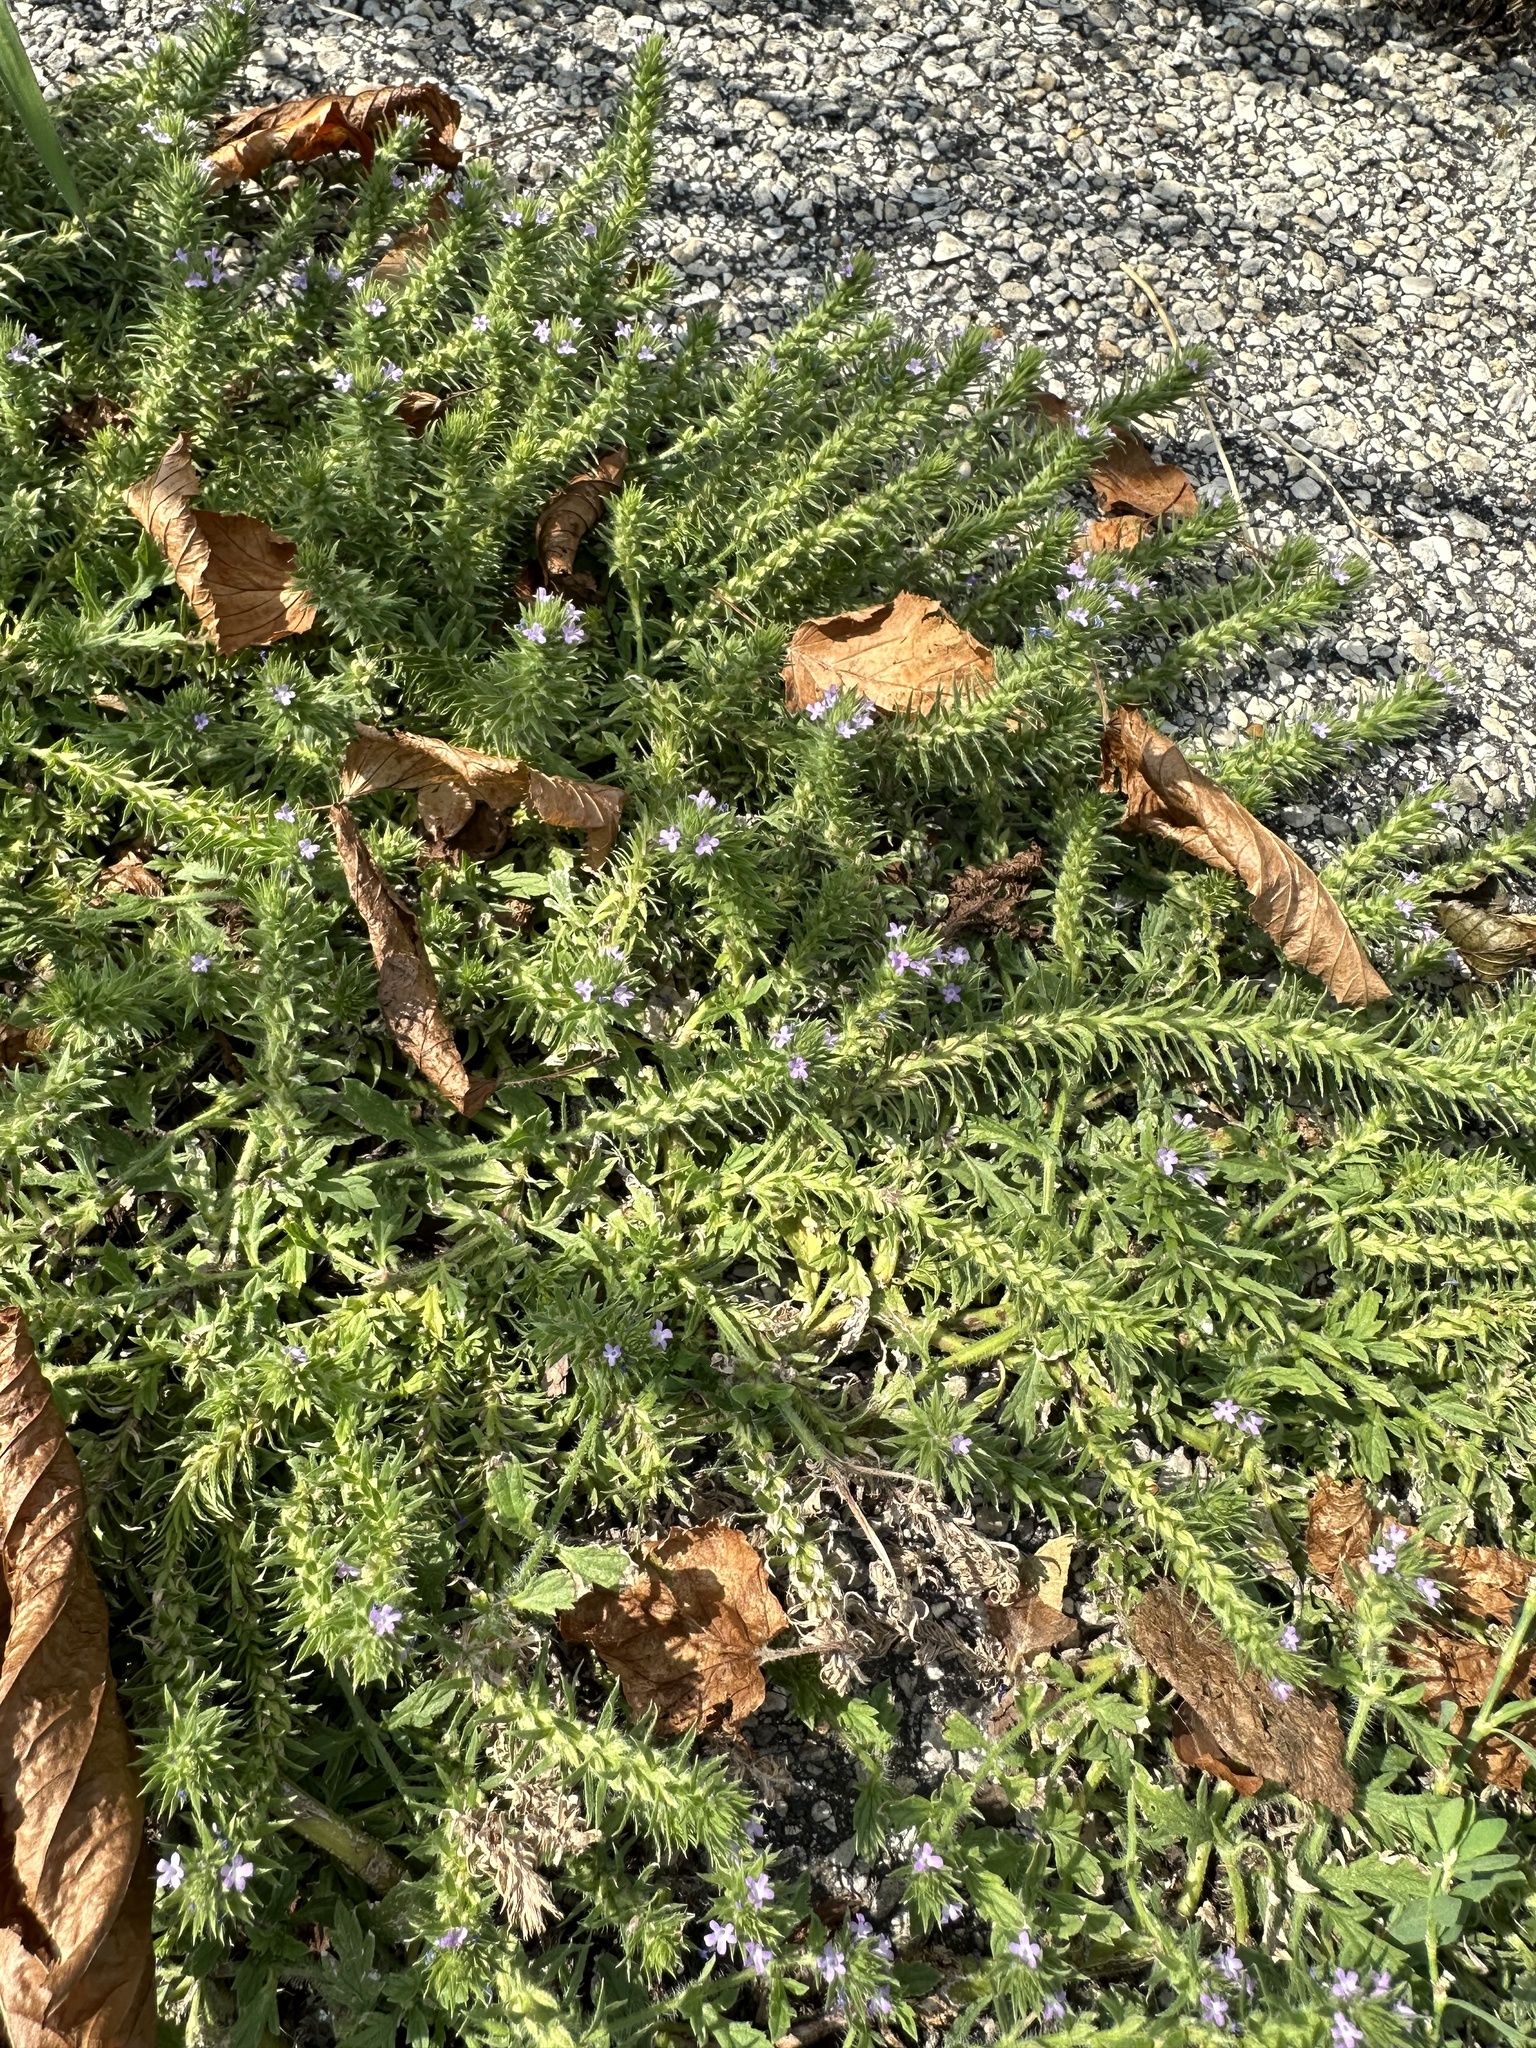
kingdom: Plantae
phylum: Tracheophyta
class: Magnoliopsida
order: Lamiales
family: Verbenaceae
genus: Verbena
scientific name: Verbena bracteata
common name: Bracted vervain
